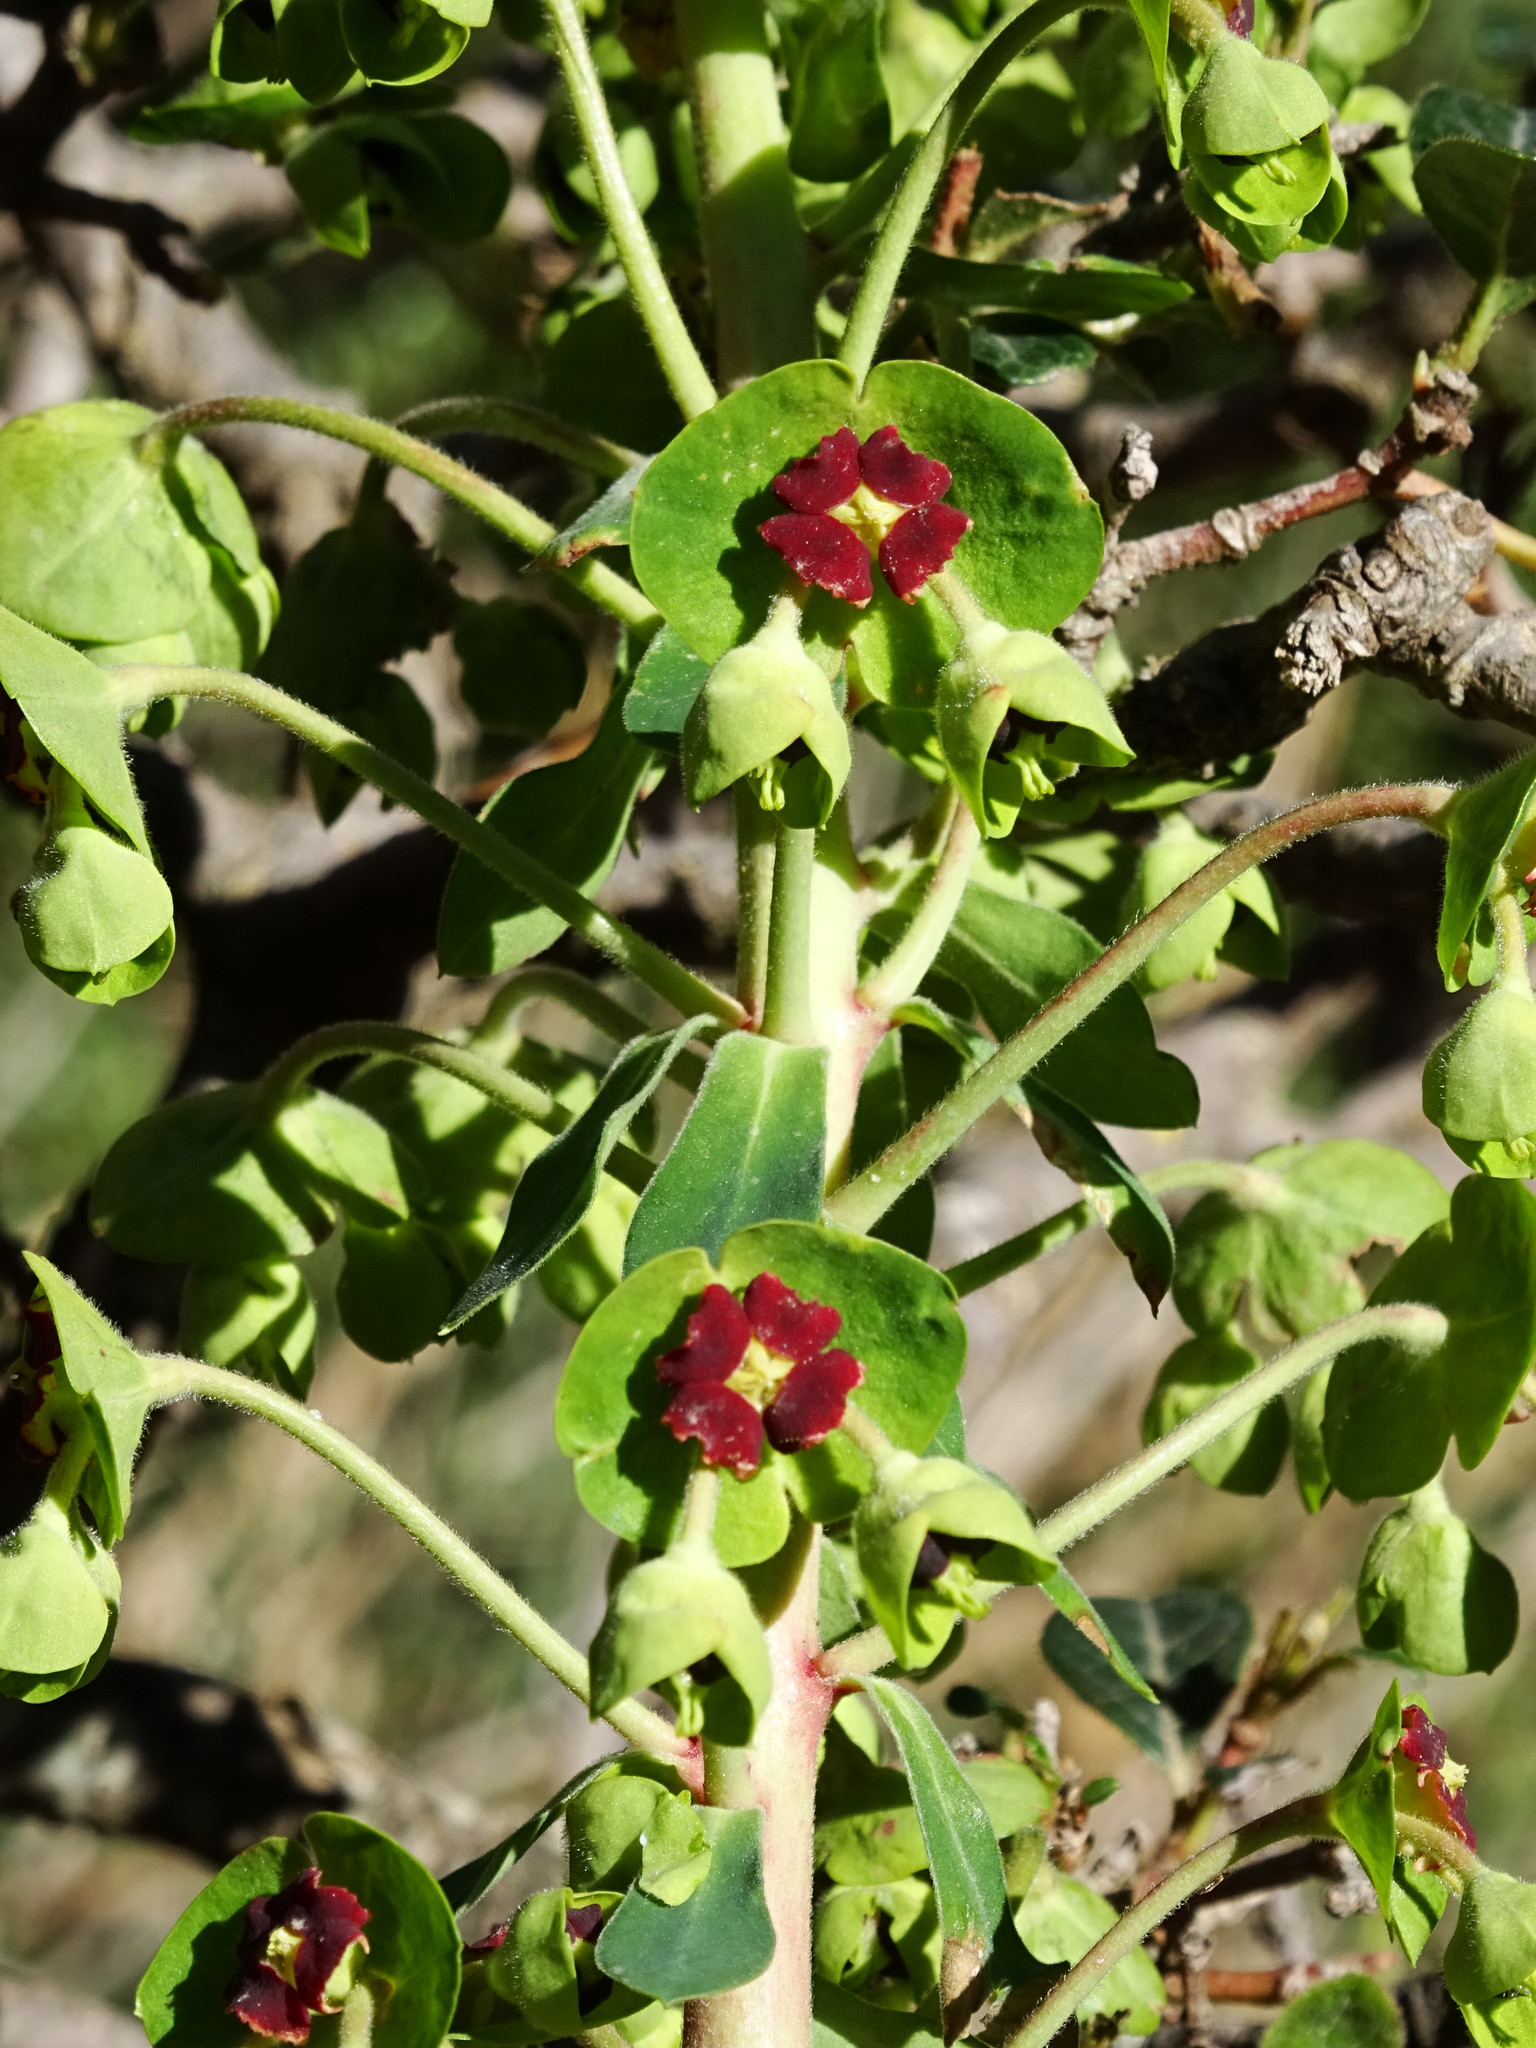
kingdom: Plantae
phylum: Tracheophyta
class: Magnoliopsida
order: Malpighiales
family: Euphorbiaceae
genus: Euphorbia
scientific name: Euphorbia characias
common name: Mediterranean spurge
